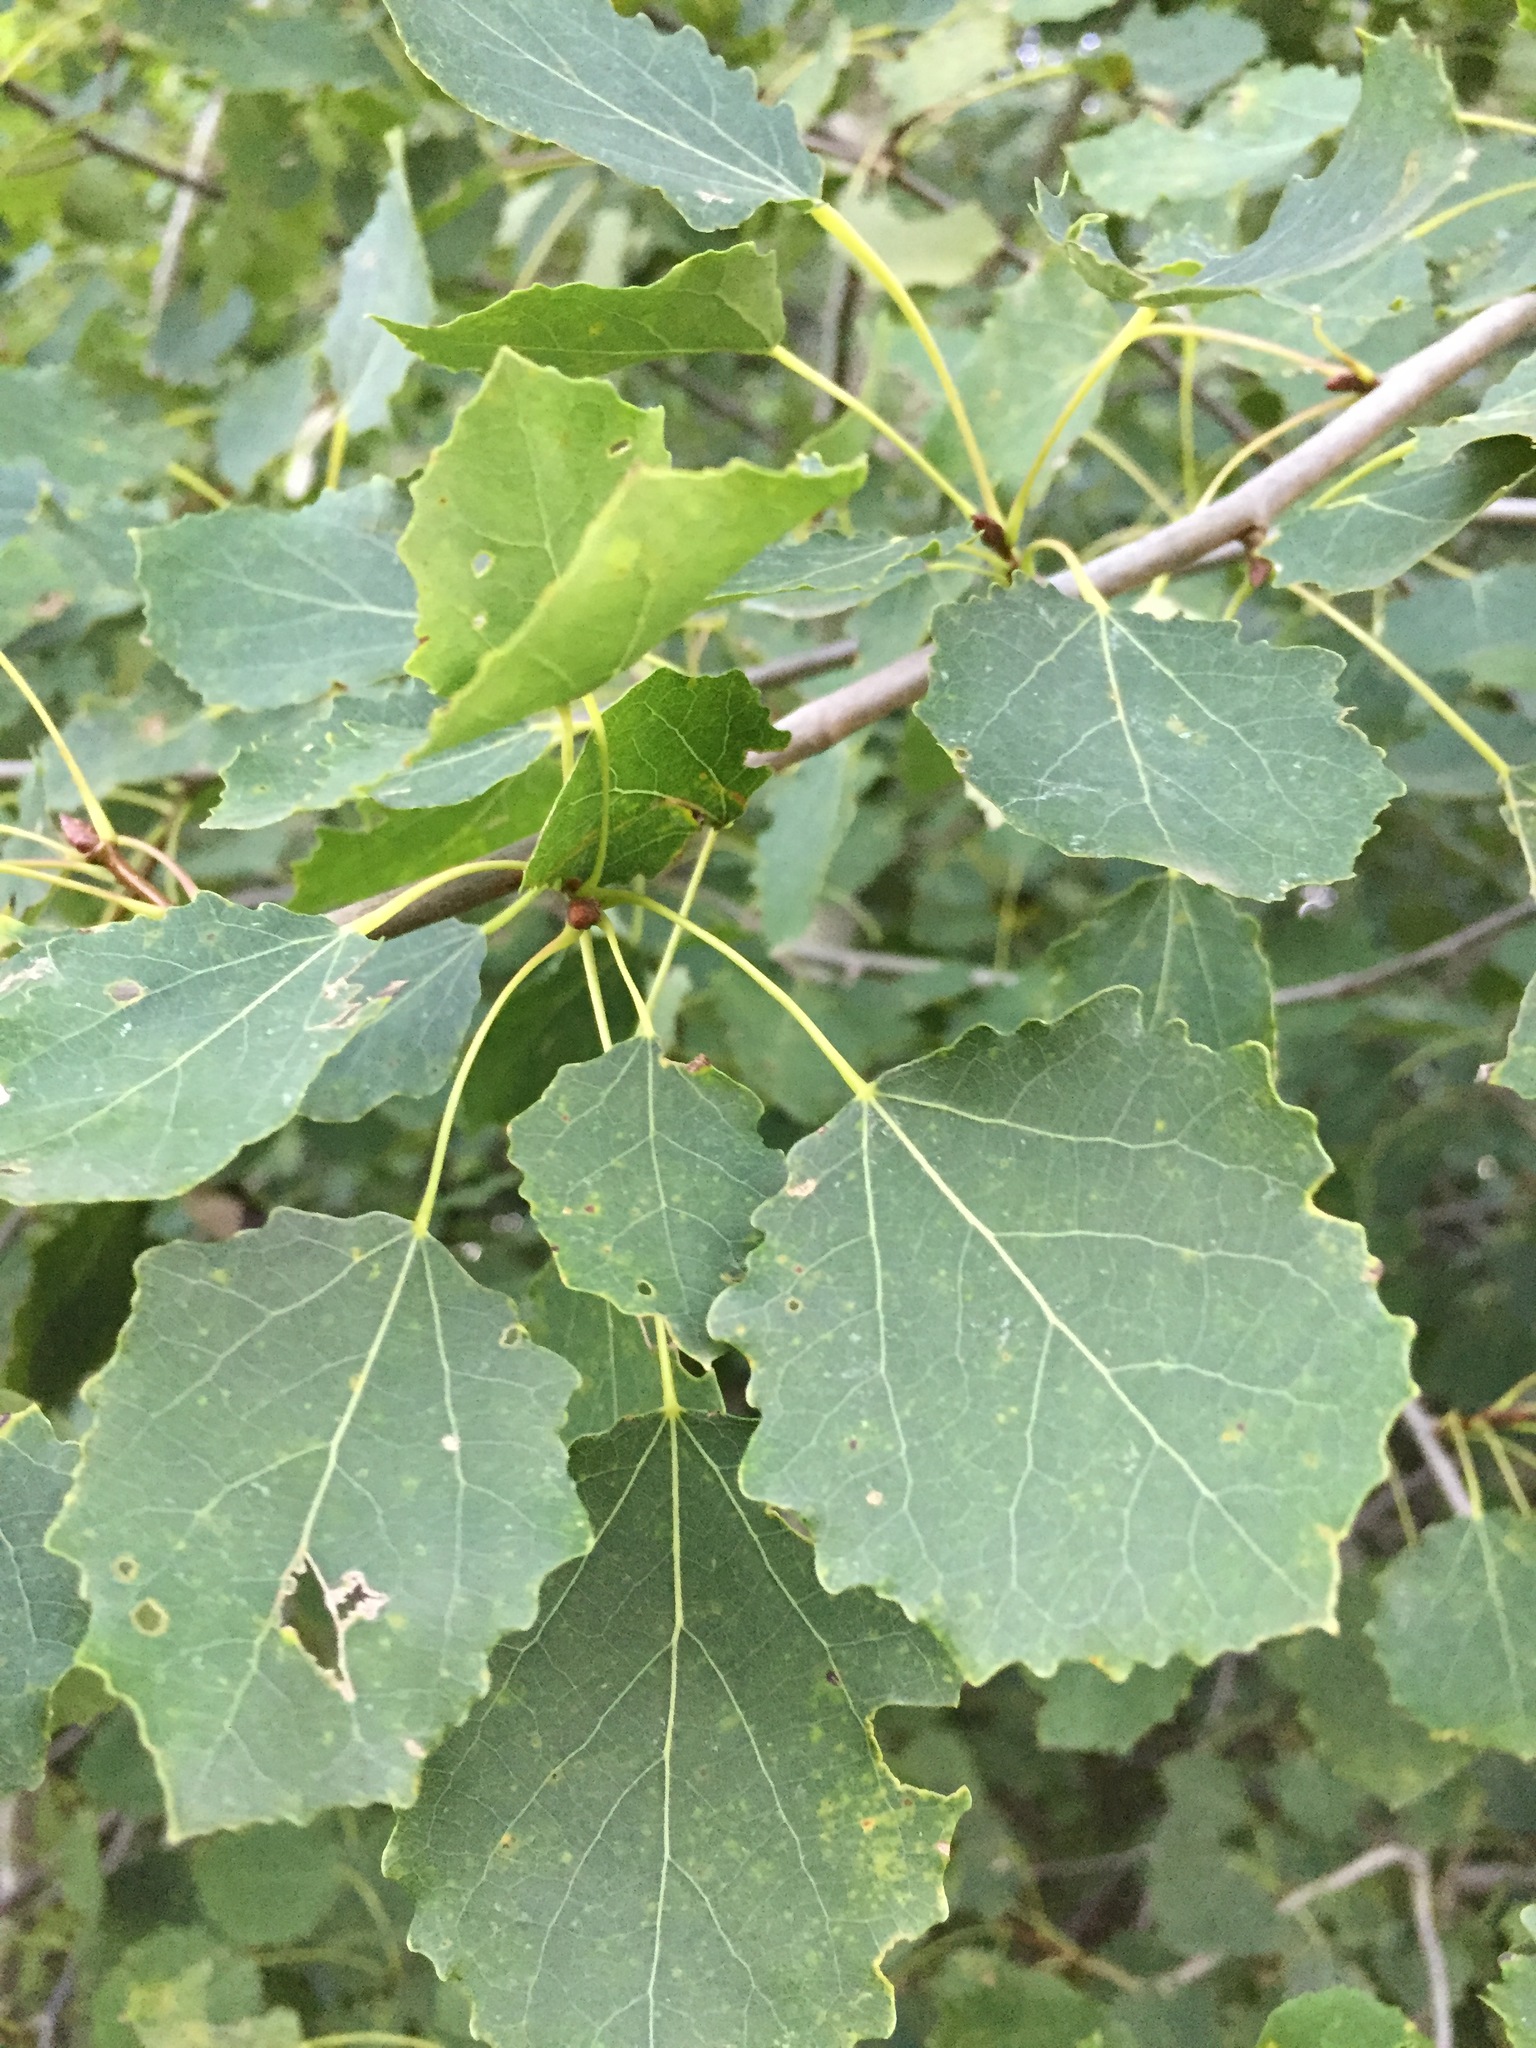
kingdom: Plantae
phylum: Tracheophyta
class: Magnoliopsida
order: Malpighiales
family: Salicaceae
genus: Populus
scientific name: Populus tremula
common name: European aspen
